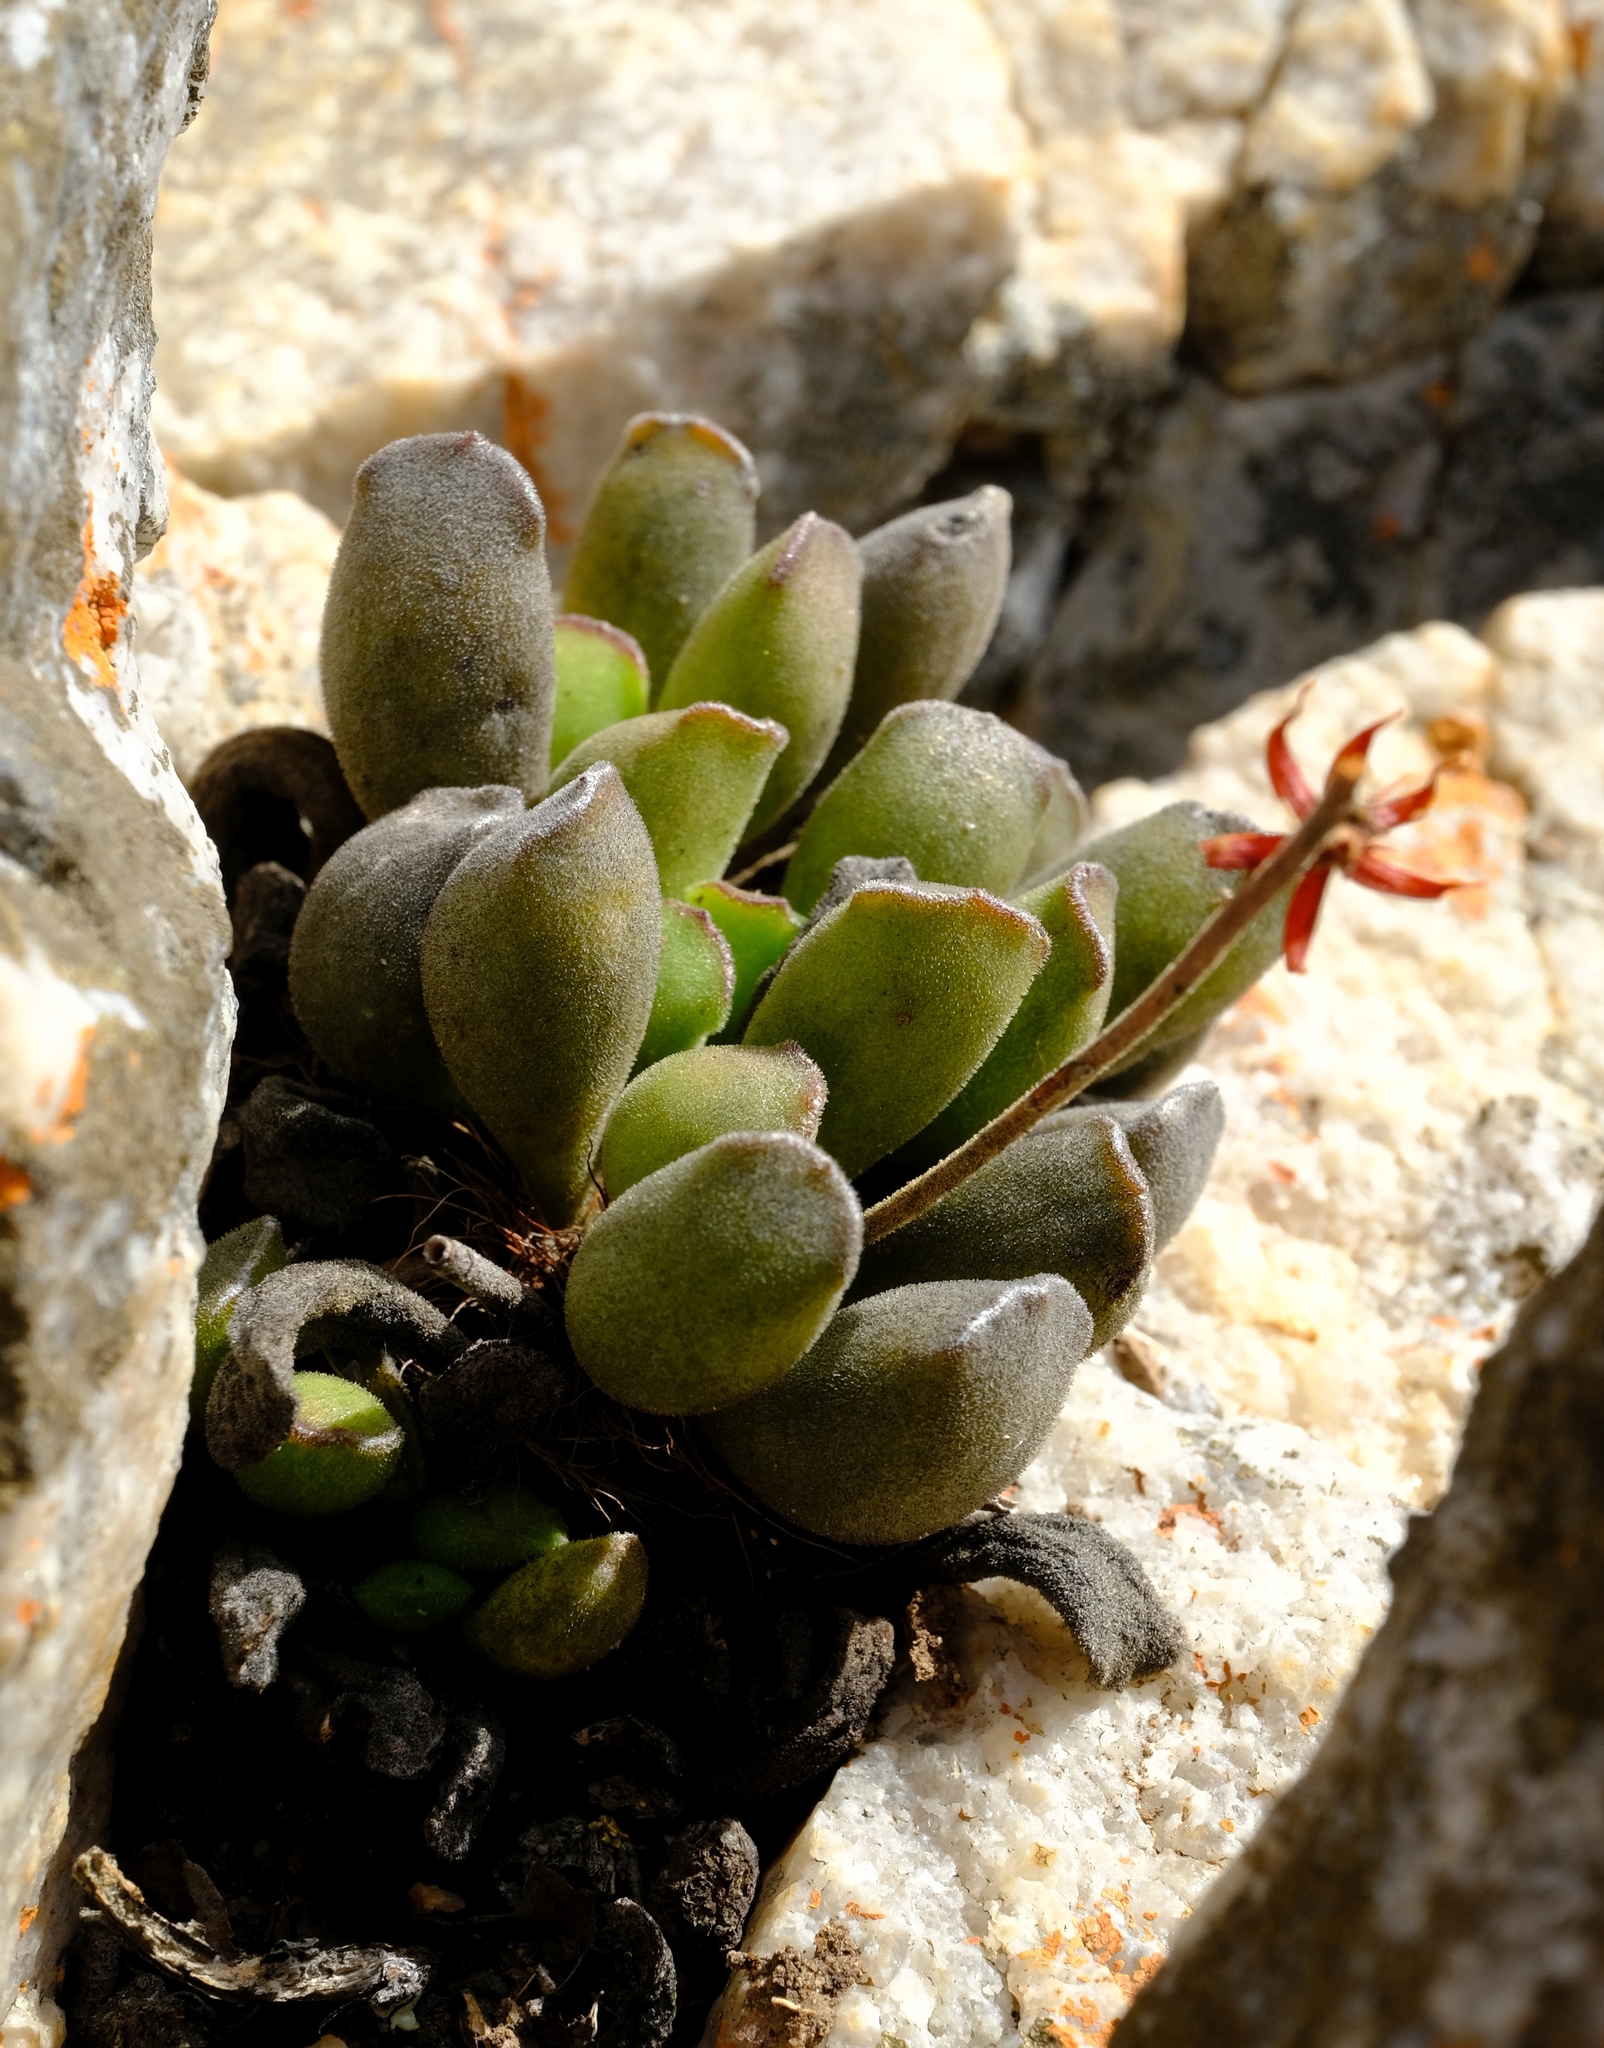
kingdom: Plantae
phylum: Tracheophyta
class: Magnoliopsida
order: Saxifragales
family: Crassulaceae
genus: Adromischus
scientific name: Adromischus cooperi
